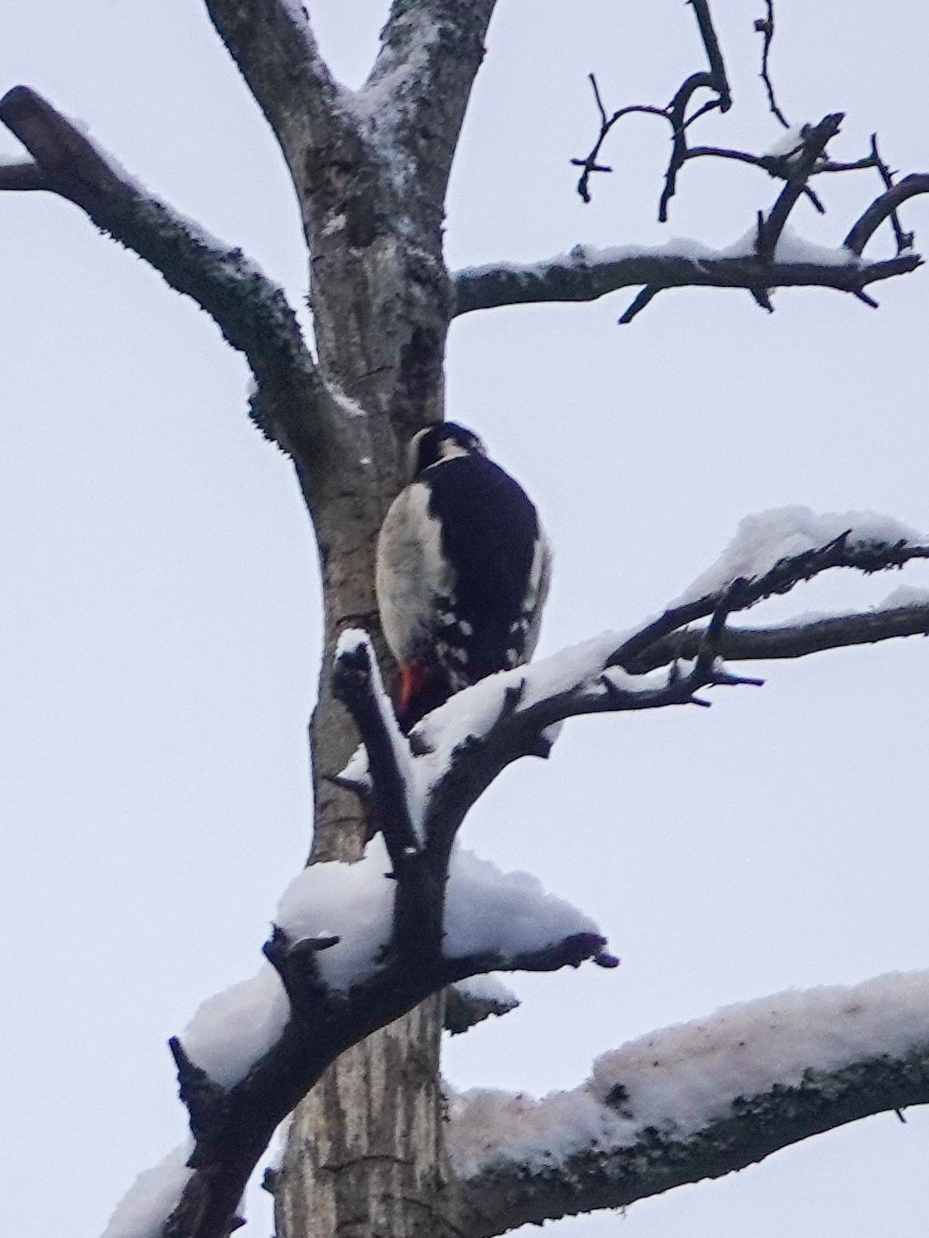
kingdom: Animalia
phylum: Chordata
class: Aves
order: Piciformes
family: Picidae
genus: Dendrocopos
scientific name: Dendrocopos major
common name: Great spotted woodpecker
